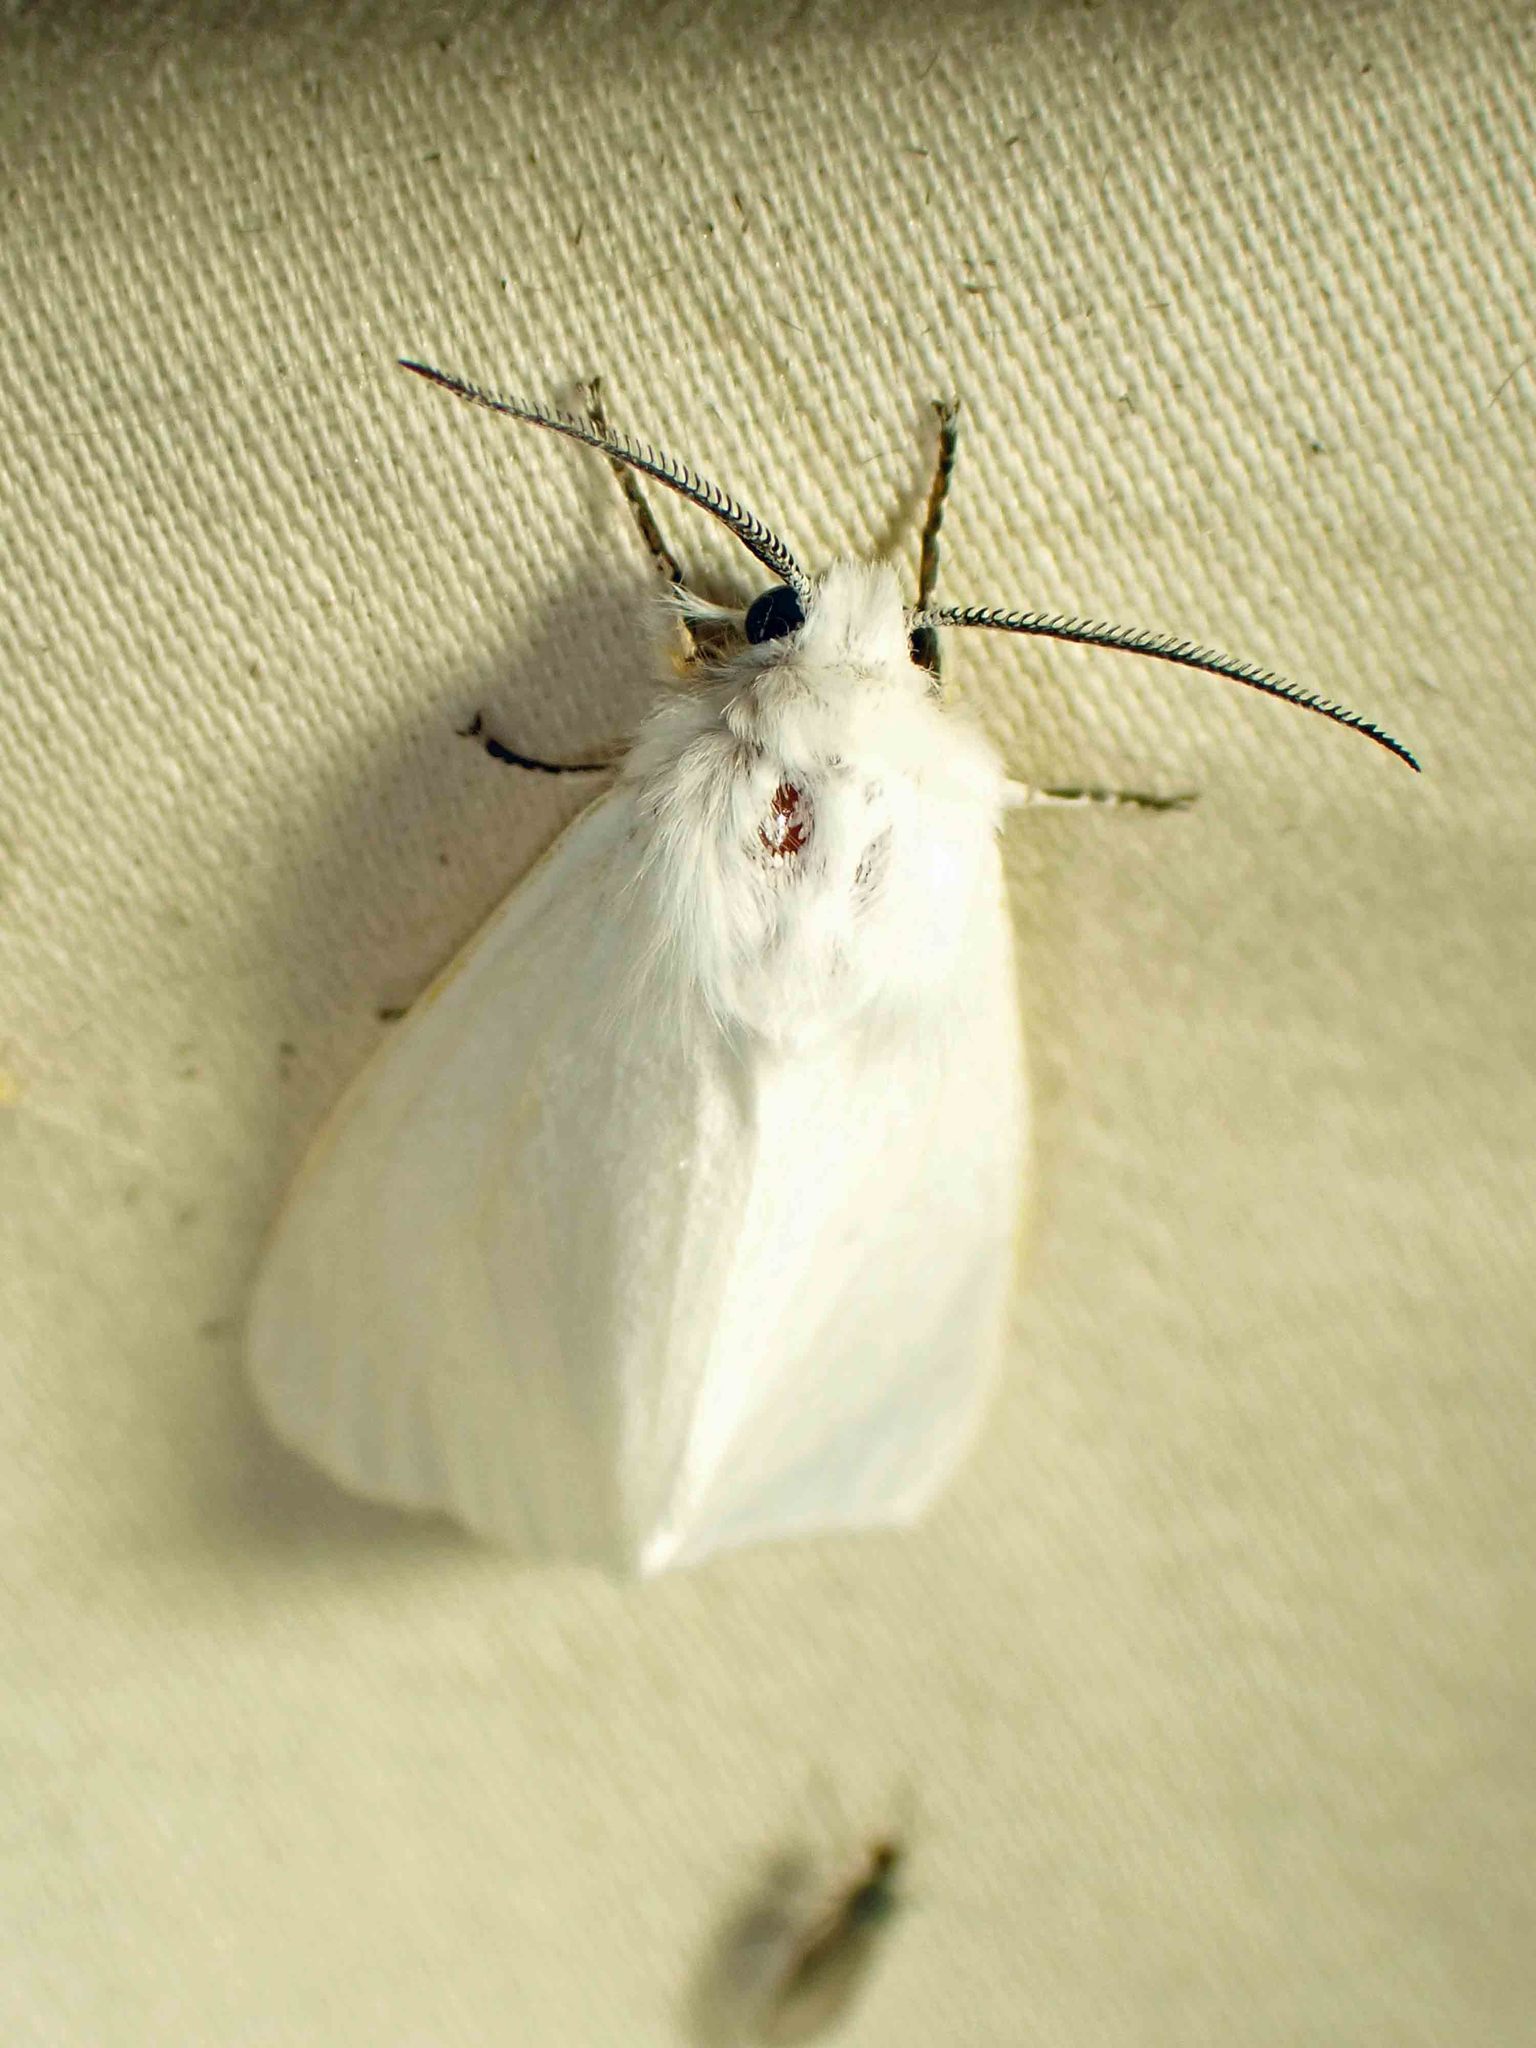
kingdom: Animalia
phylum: Arthropoda
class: Insecta
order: Lepidoptera
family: Erebidae
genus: Hyphantria
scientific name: Hyphantria cunea
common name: American white moth
